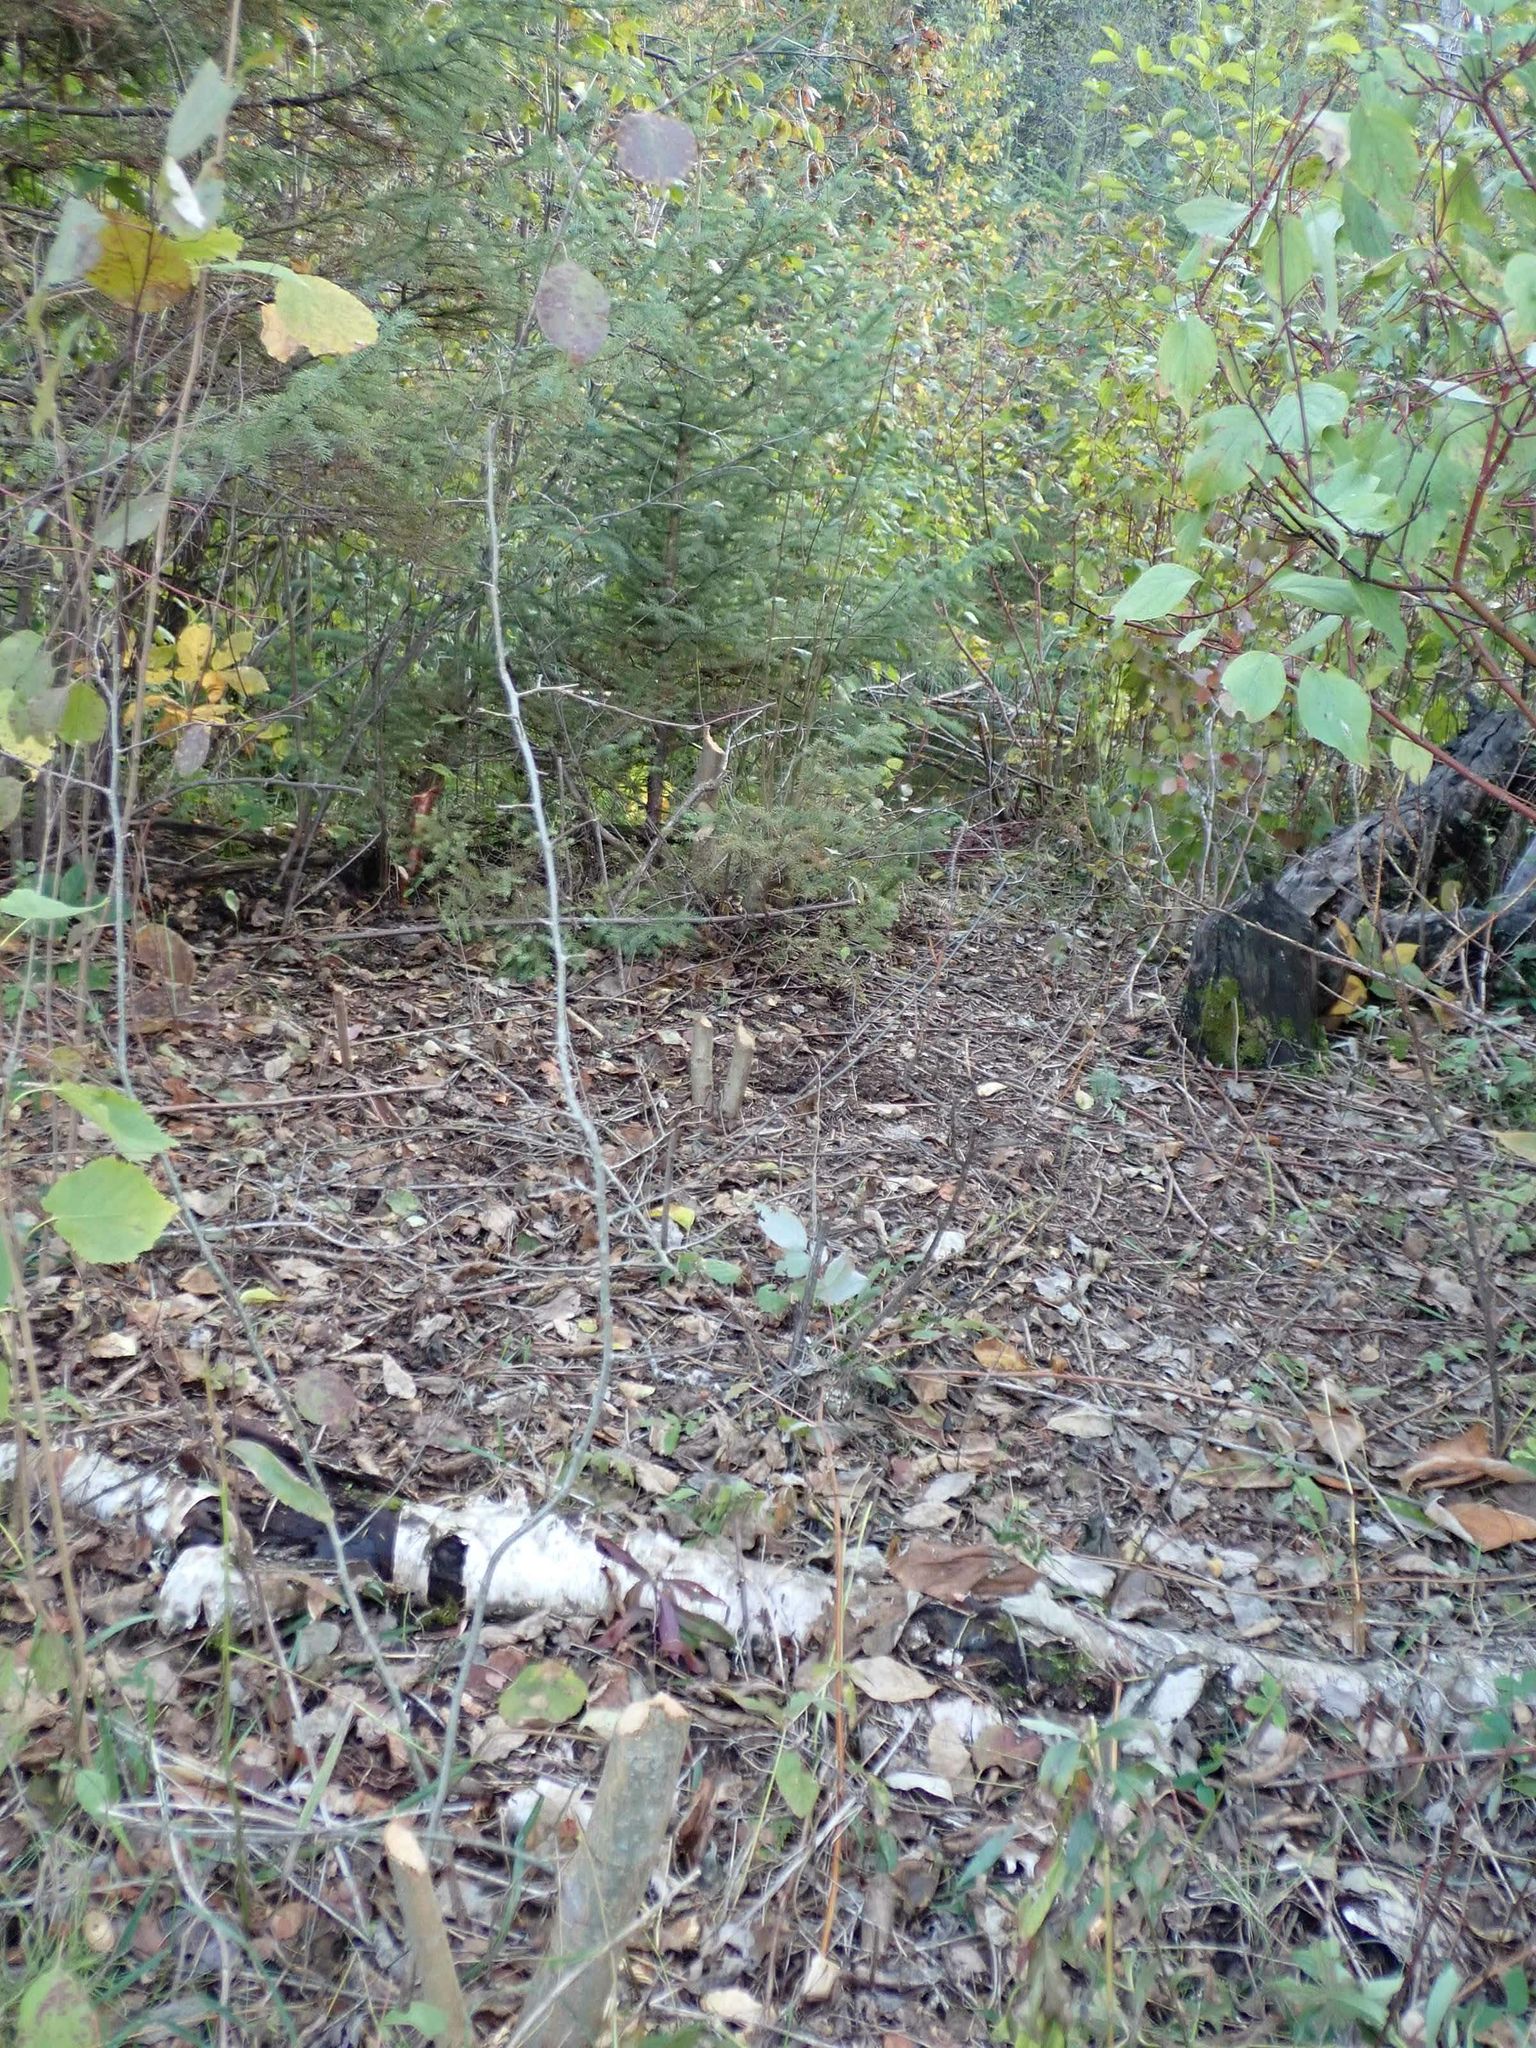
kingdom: Animalia
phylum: Chordata
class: Mammalia
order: Rodentia
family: Castoridae
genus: Castor
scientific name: Castor canadensis
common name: American beaver
